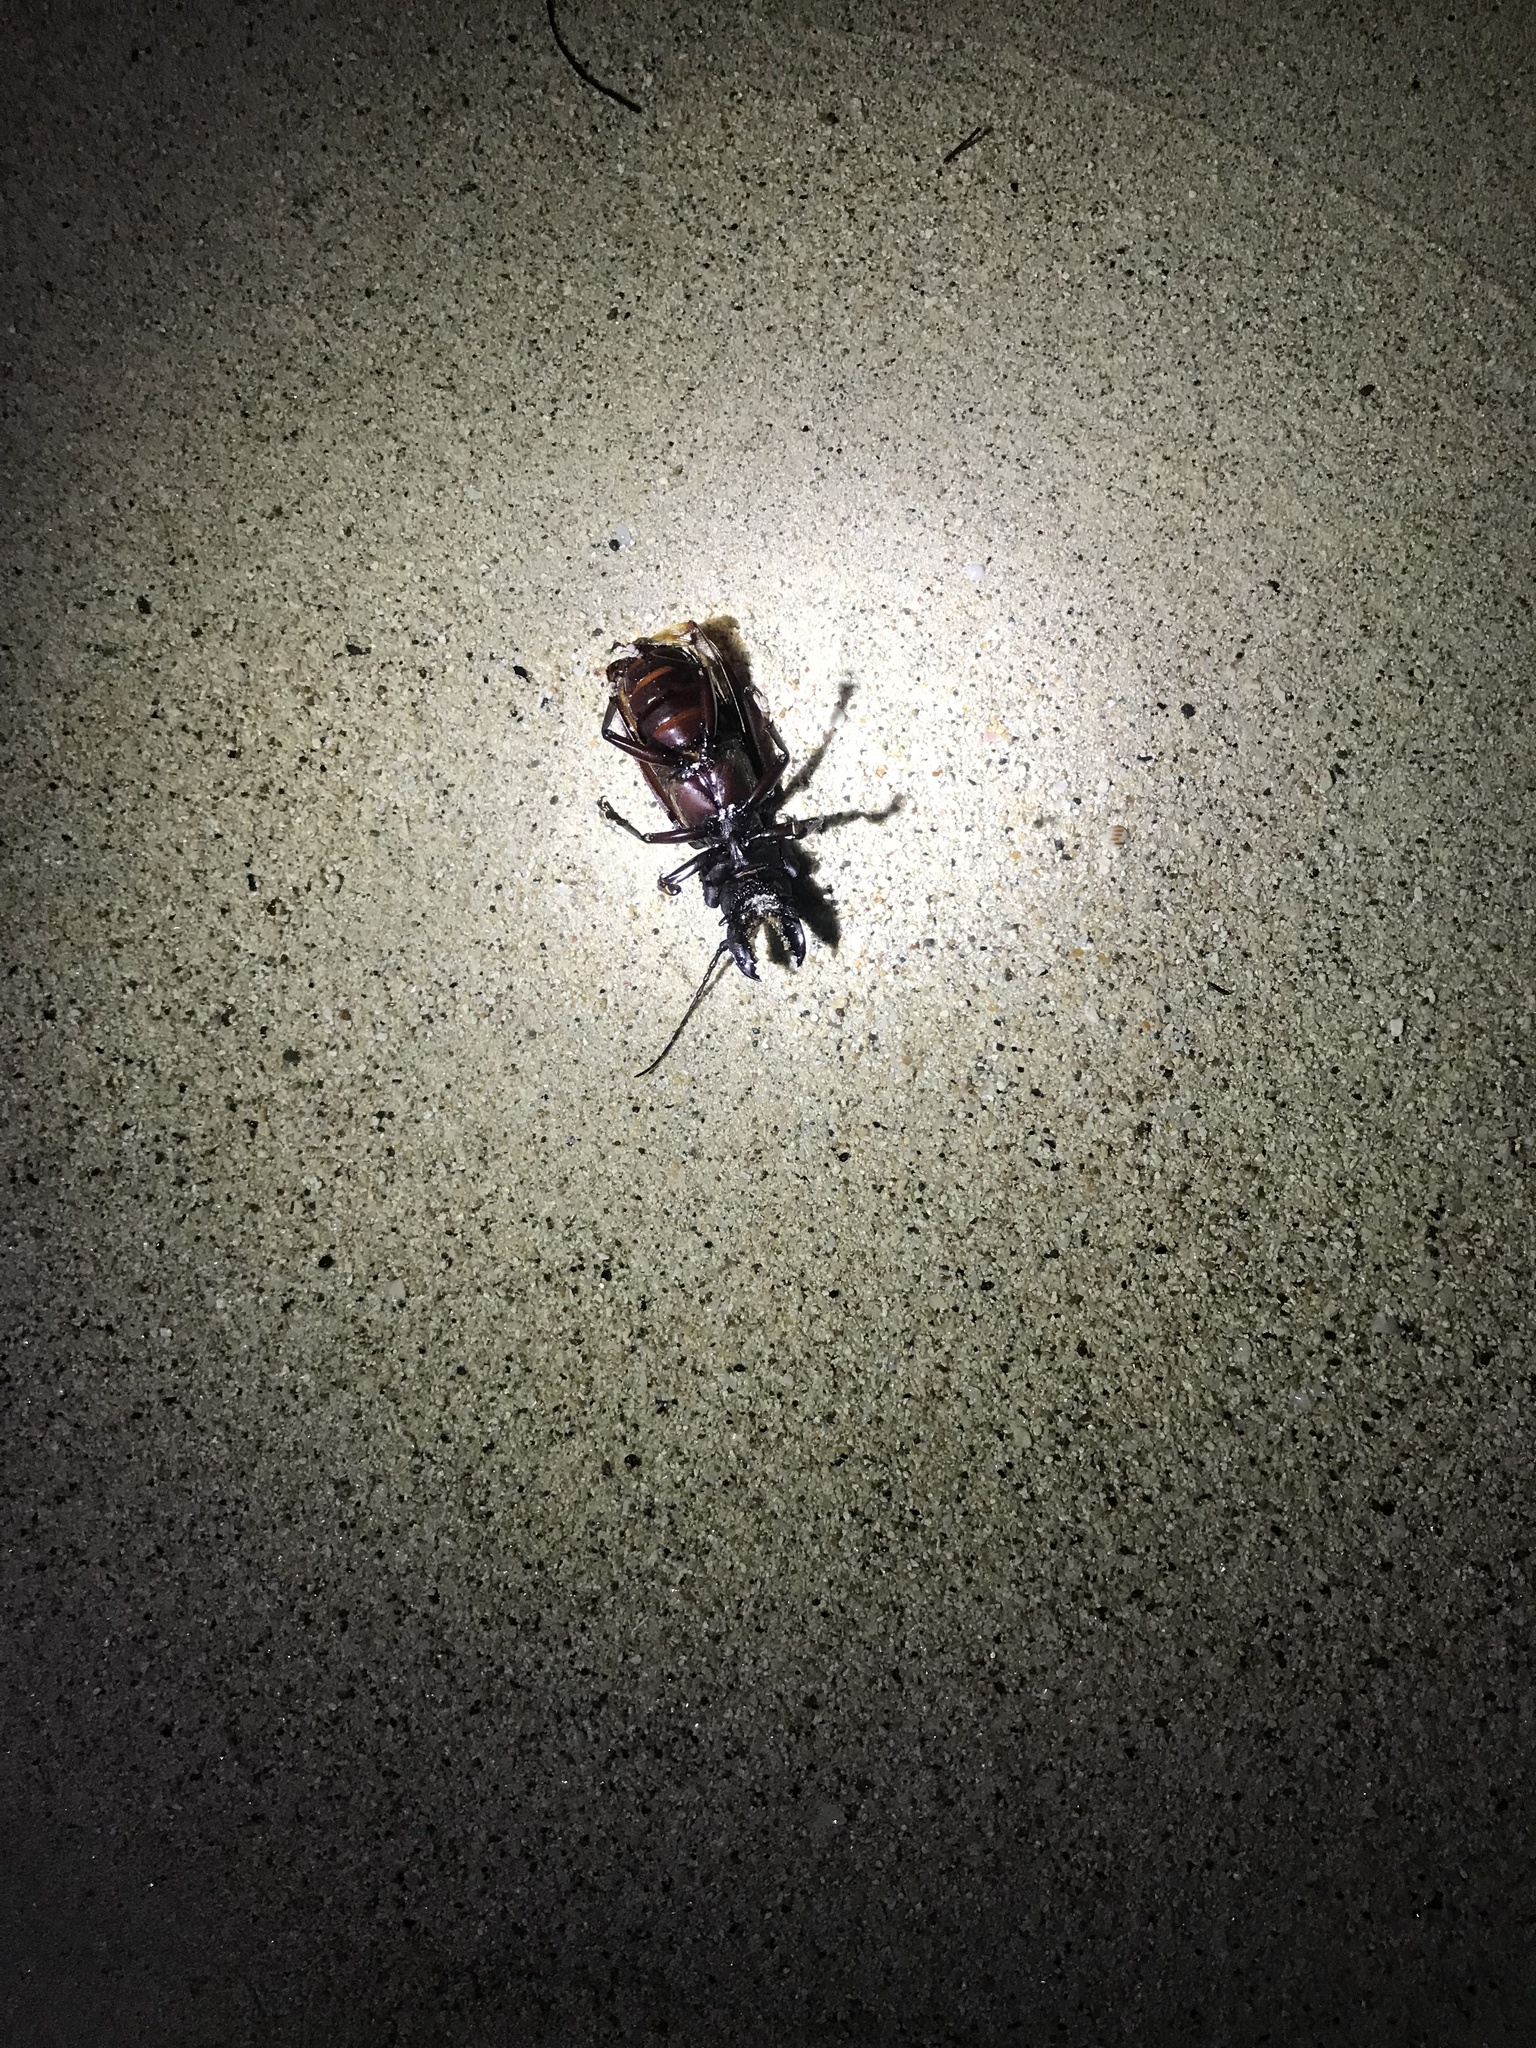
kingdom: Animalia
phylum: Arthropoda
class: Insecta
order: Coleoptera
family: Cerambycidae
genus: Hovorodon
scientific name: Hovorodon bituberculatum
